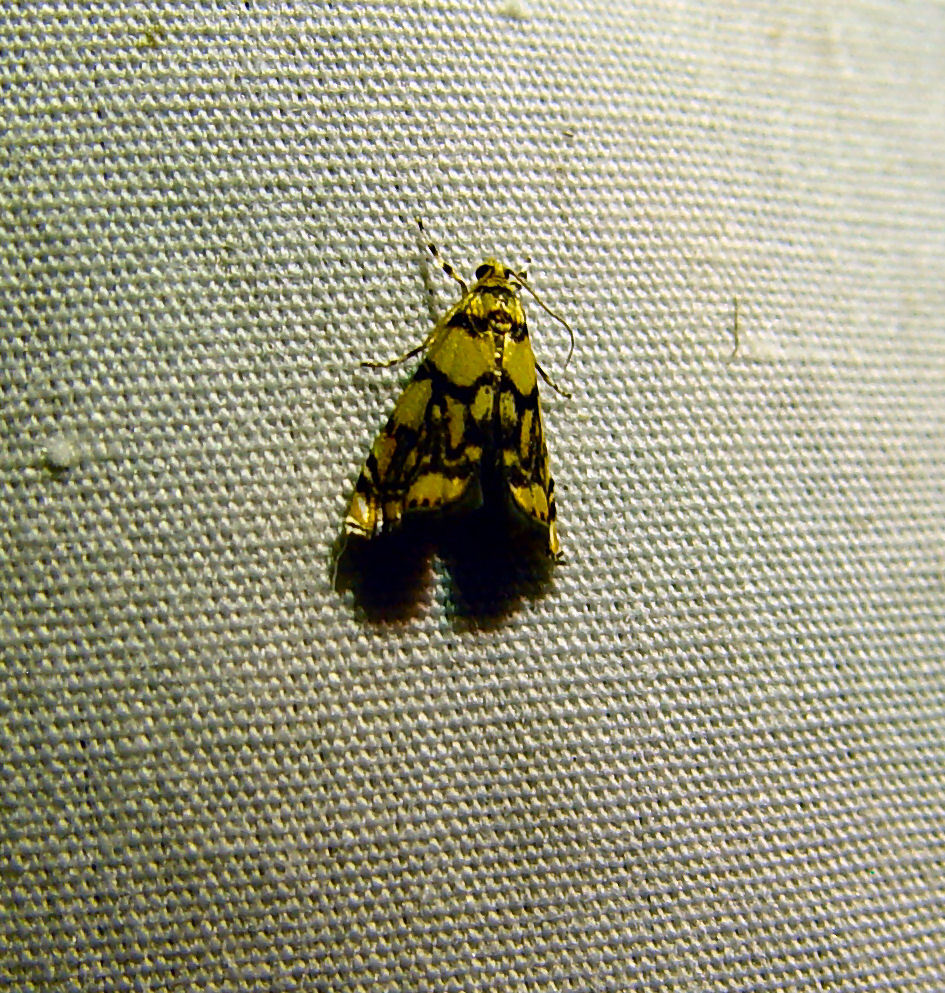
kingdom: Animalia
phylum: Arthropoda
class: Insecta
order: Lepidoptera
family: Crambidae
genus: Diptychophora
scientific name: Diptychophora harlequinalis
